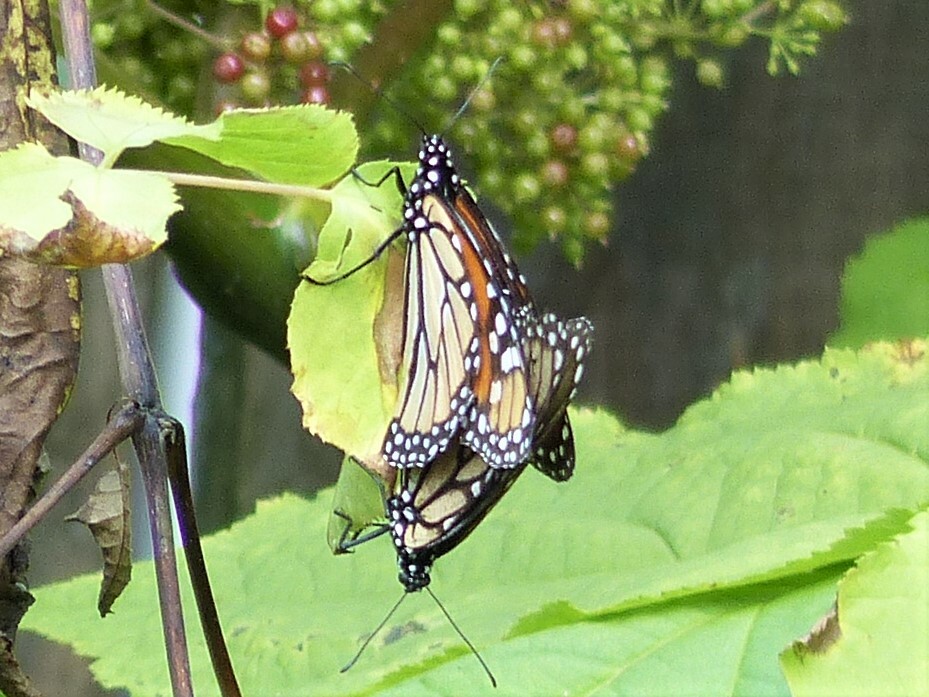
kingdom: Animalia
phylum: Arthropoda
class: Insecta
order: Lepidoptera
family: Nymphalidae
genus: Danaus
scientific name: Danaus plexippus
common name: Monarch
